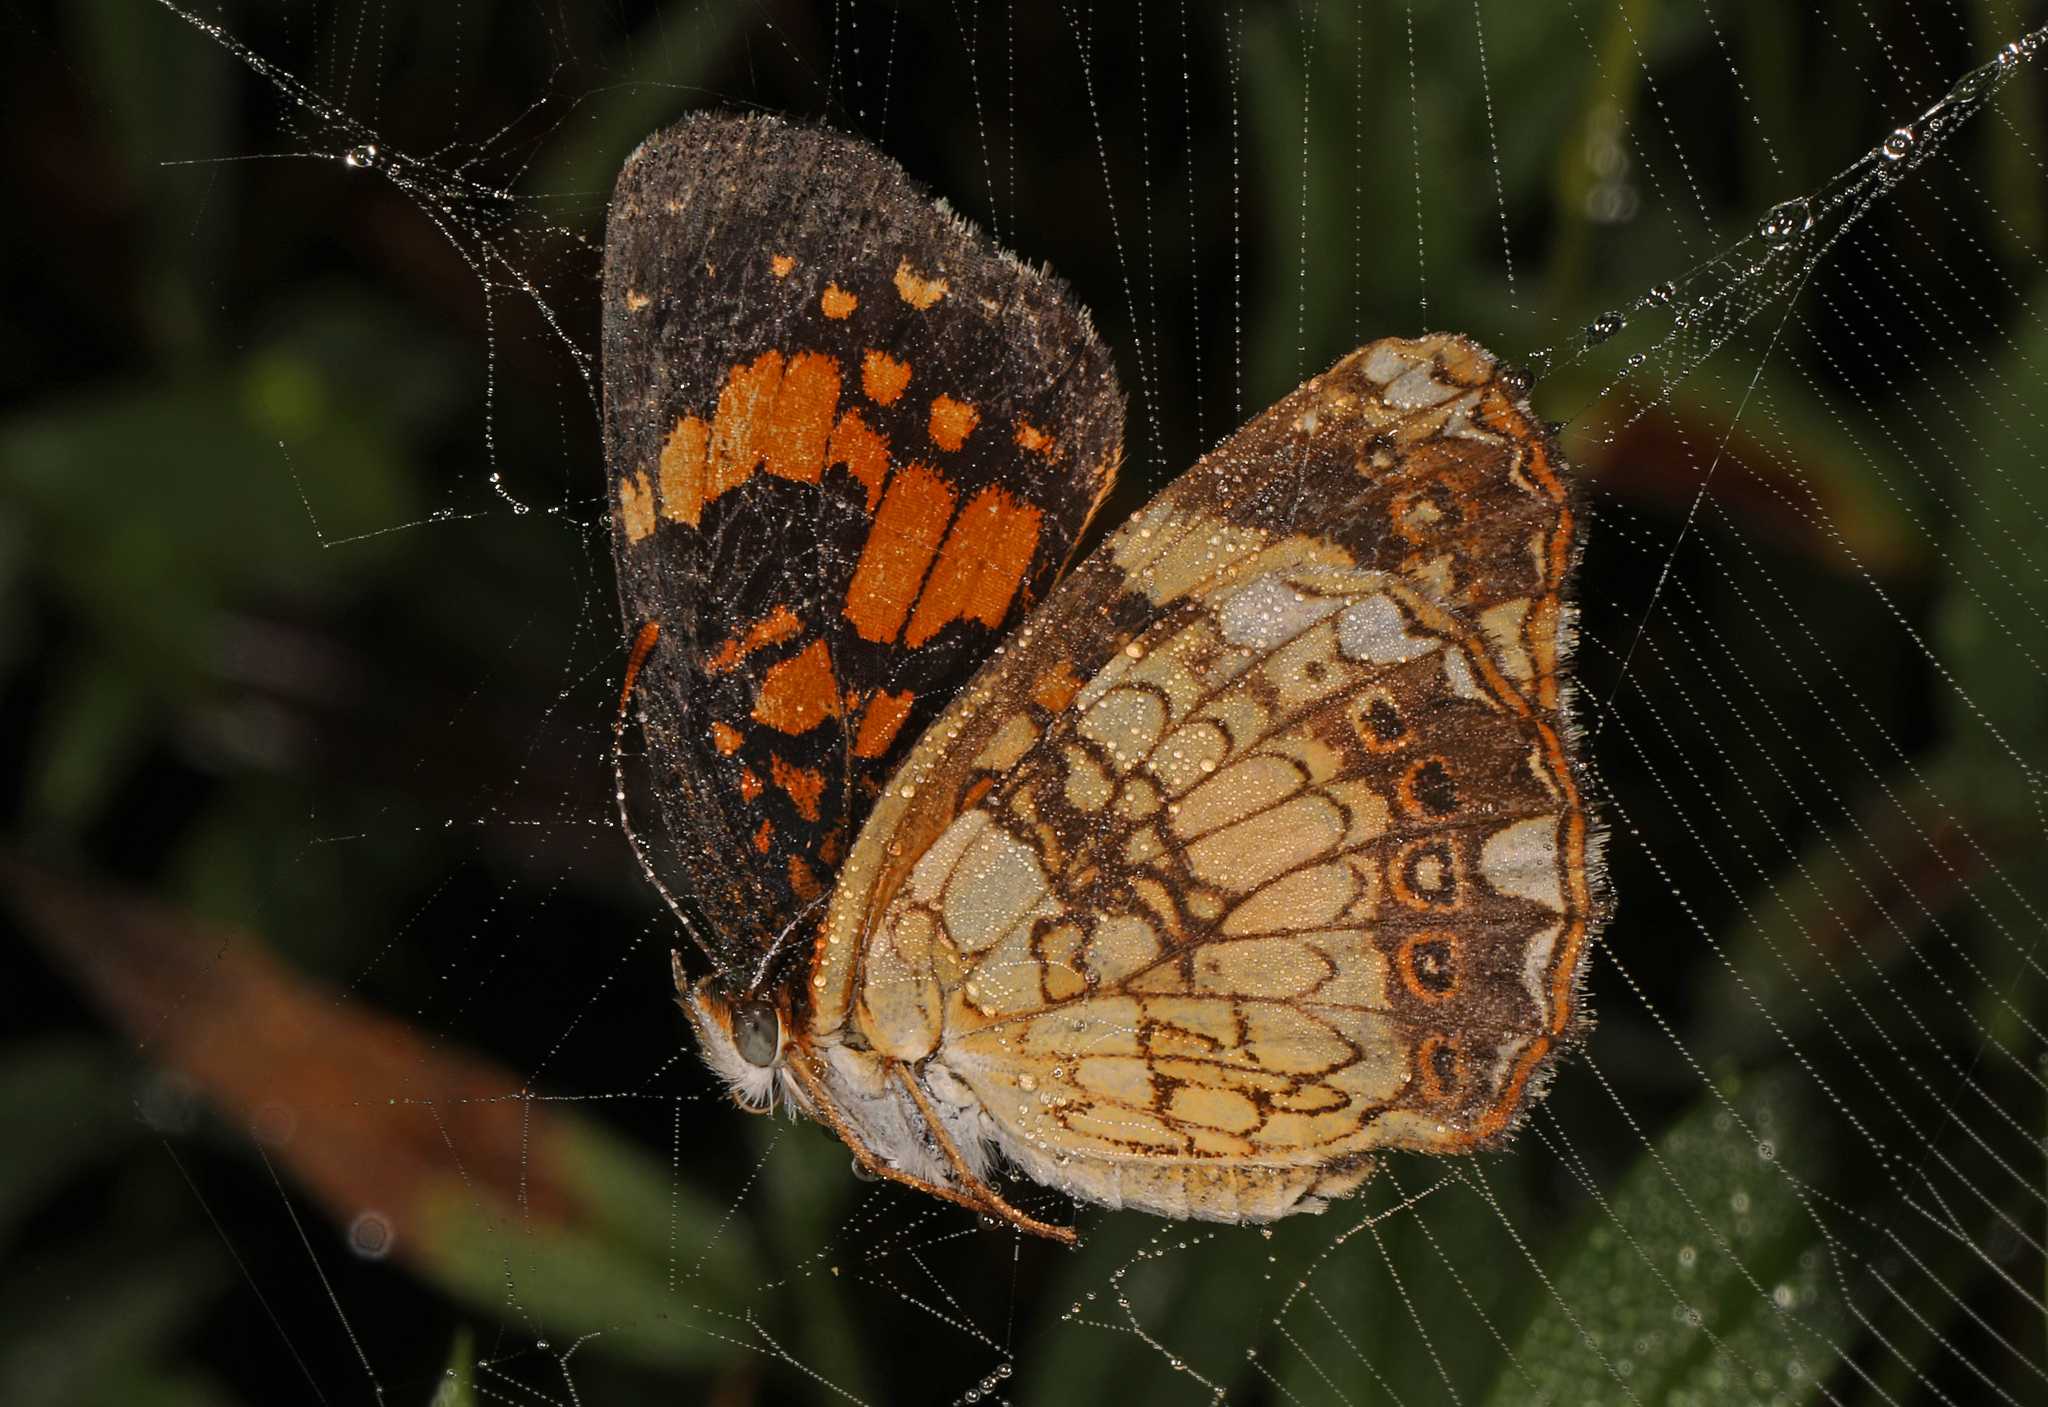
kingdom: Animalia
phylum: Arthropoda
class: Insecta
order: Lepidoptera
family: Nymphalidae
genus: Chlosyne
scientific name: Chlosyne nycteis
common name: Silvery checkerspot
